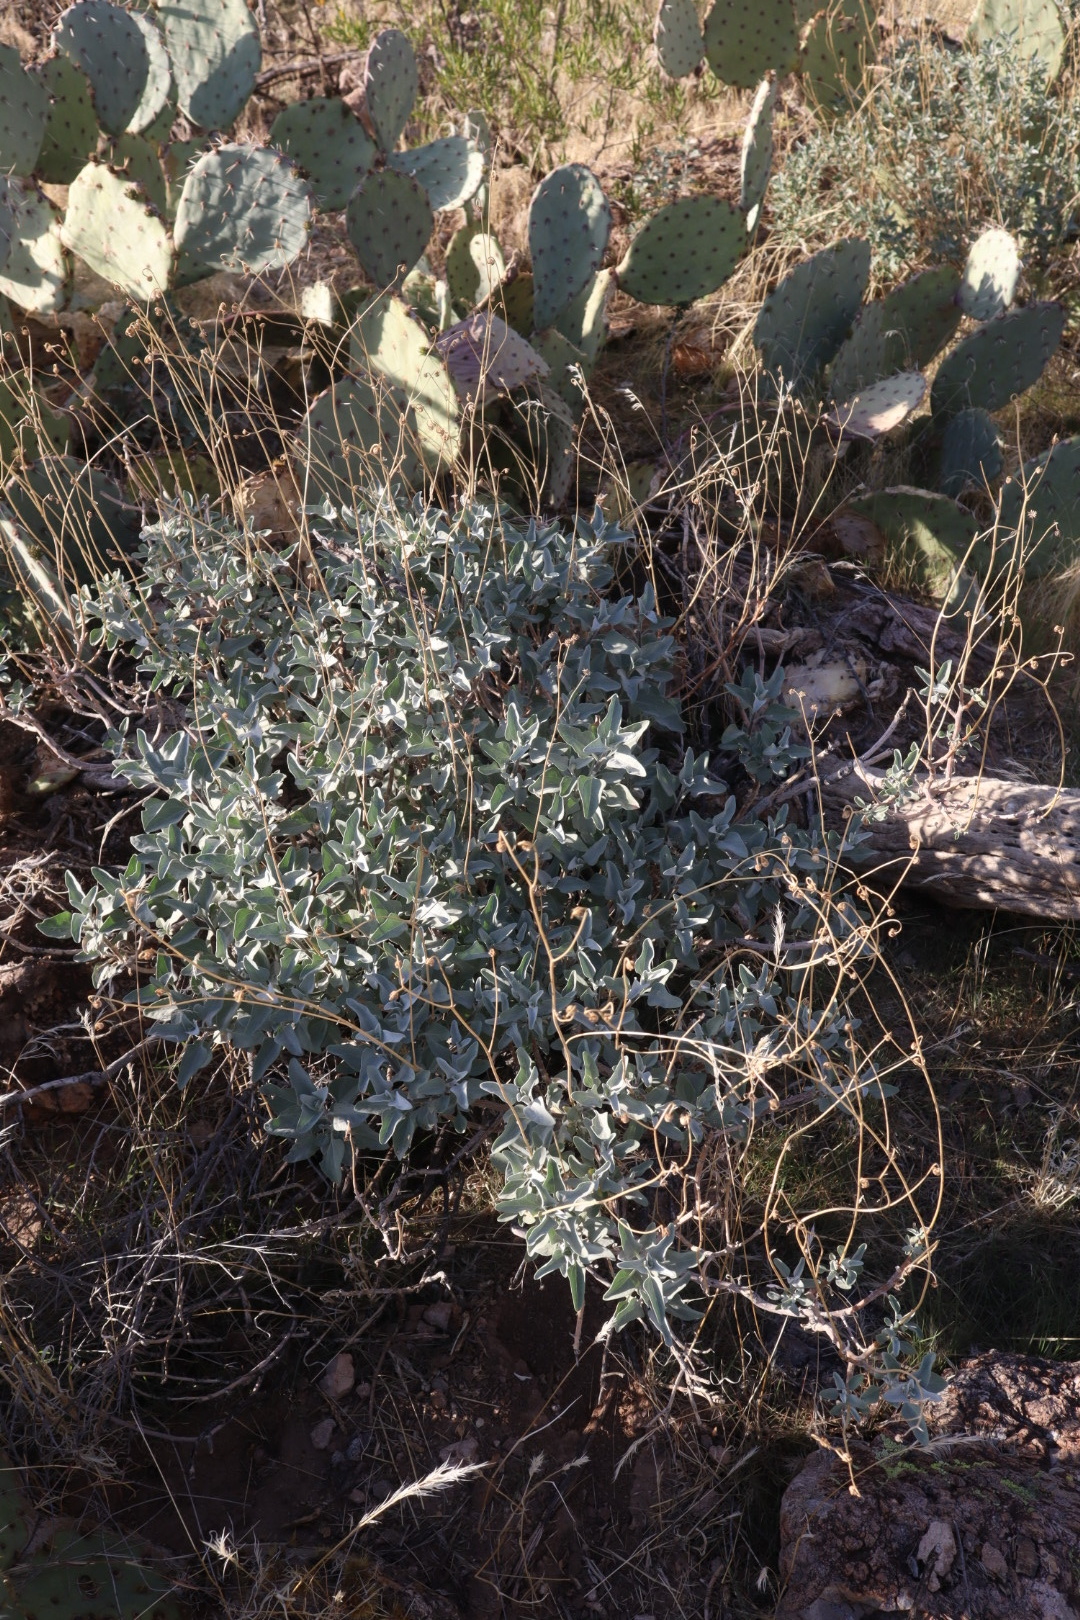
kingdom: Plantae
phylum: Tracheophyta
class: Magnoliopsida
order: Asterales
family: Asteraceae
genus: Encelia
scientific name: Encelia farinosa
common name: Brittlebush
